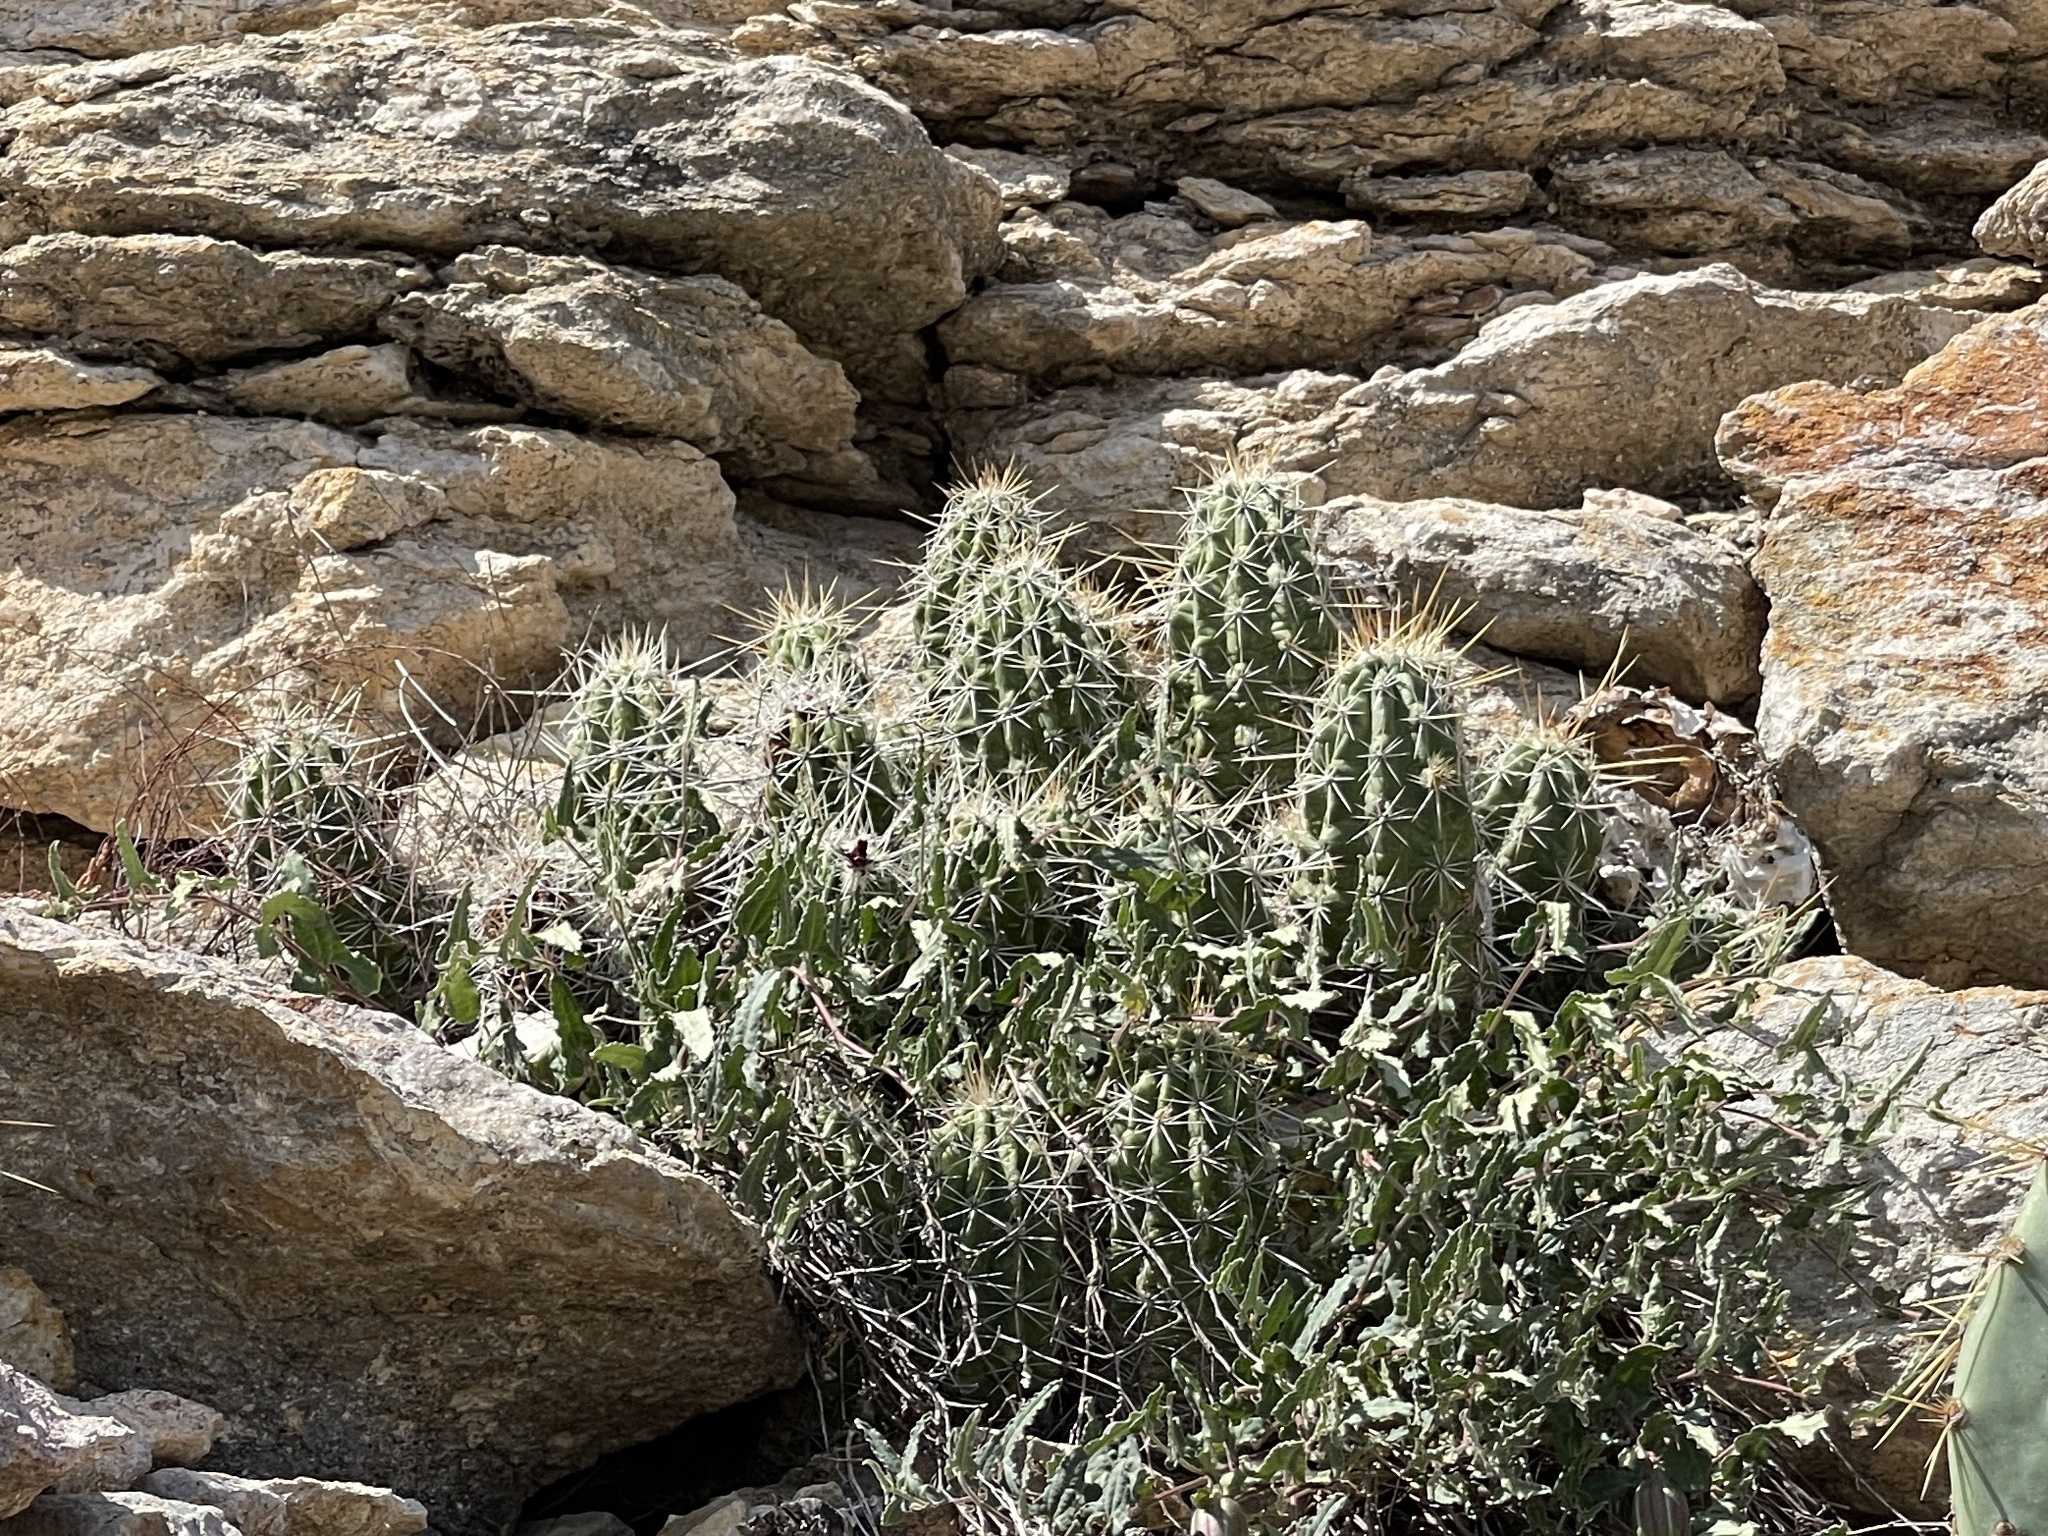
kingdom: Plantae
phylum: Tracheophyta
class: Magnoliopsida
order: Caryophyllales
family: Cactaceae
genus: Echinocereus
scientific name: Echinocereus enneacanthus
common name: Pitaya
